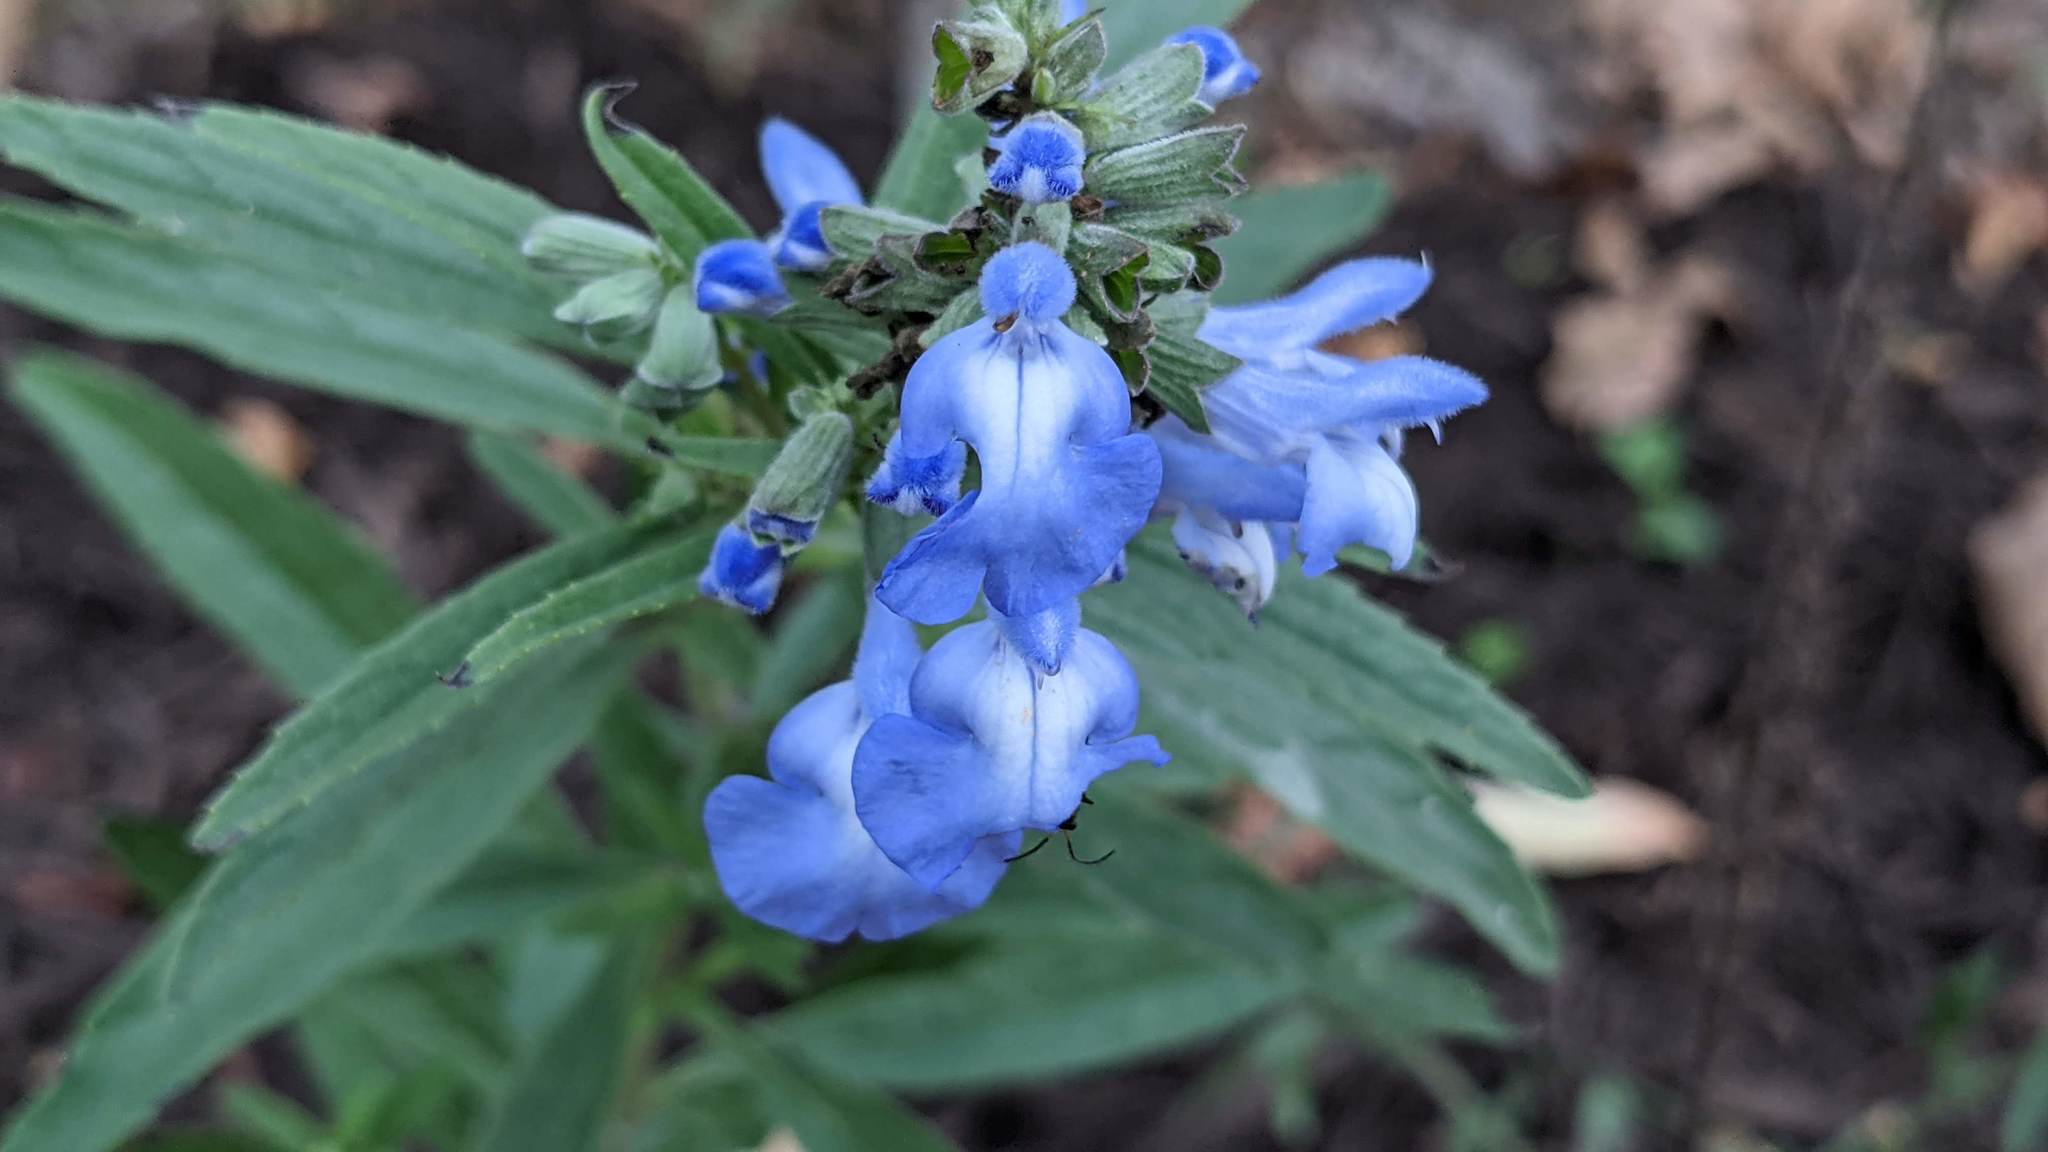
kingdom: Plantae
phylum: Tracheophyta
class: Magnoliopsida
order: Lamiales
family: Lamiaceae
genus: Salvia
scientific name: Salvia azurea
